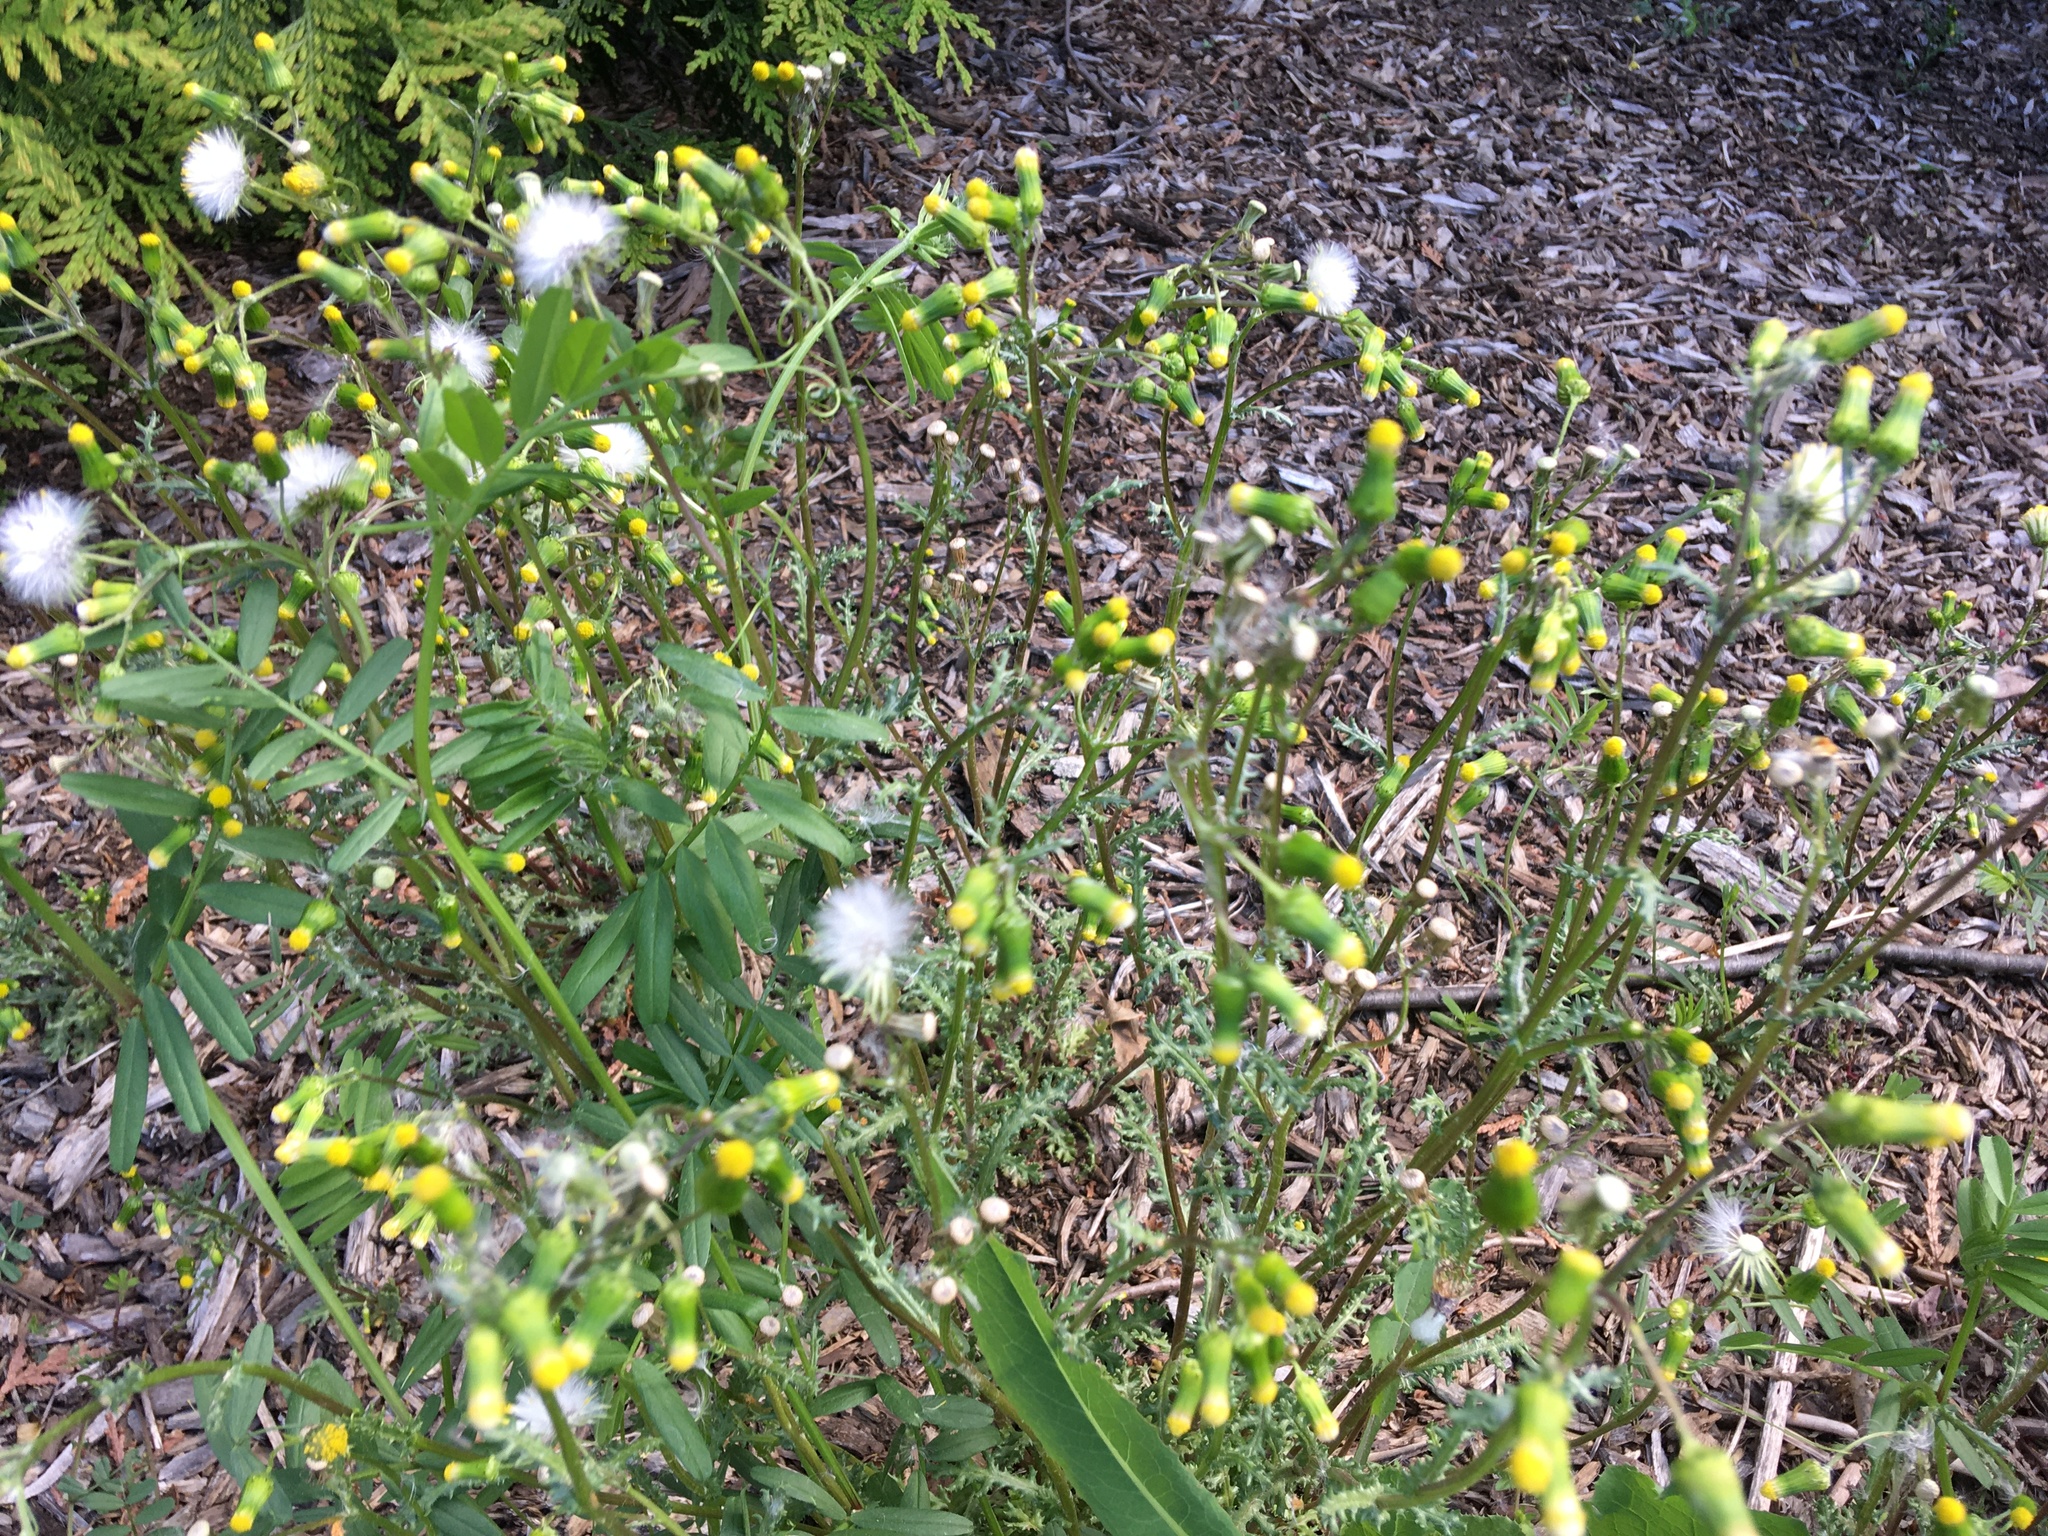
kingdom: Plantae
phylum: Tracheophyta
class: Magnoliopsida
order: Asterales
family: Asteraceae
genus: Senecio
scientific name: Senecio vulgaris
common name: Old-man-in-the-spring
